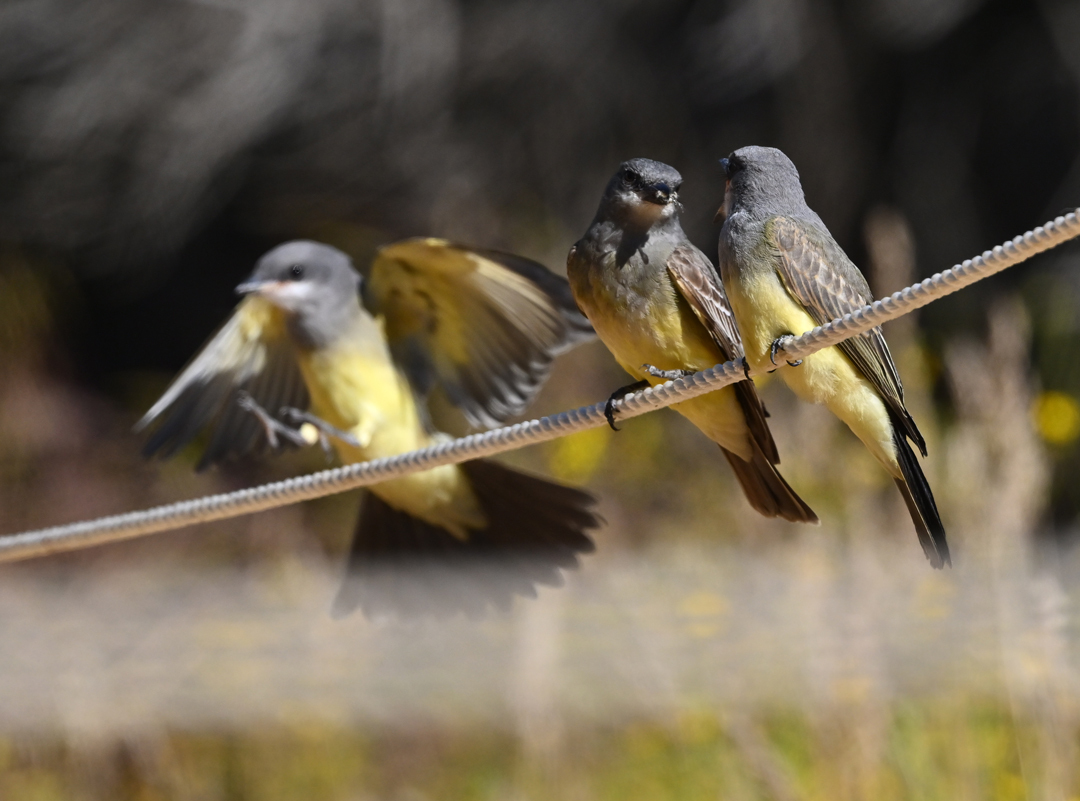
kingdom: Animalia
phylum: Chordata
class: Aves
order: Passeriformes
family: Tyrannidae
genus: Tyrannus
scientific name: Tyrannus vociferans
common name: Cassin's kingbird
